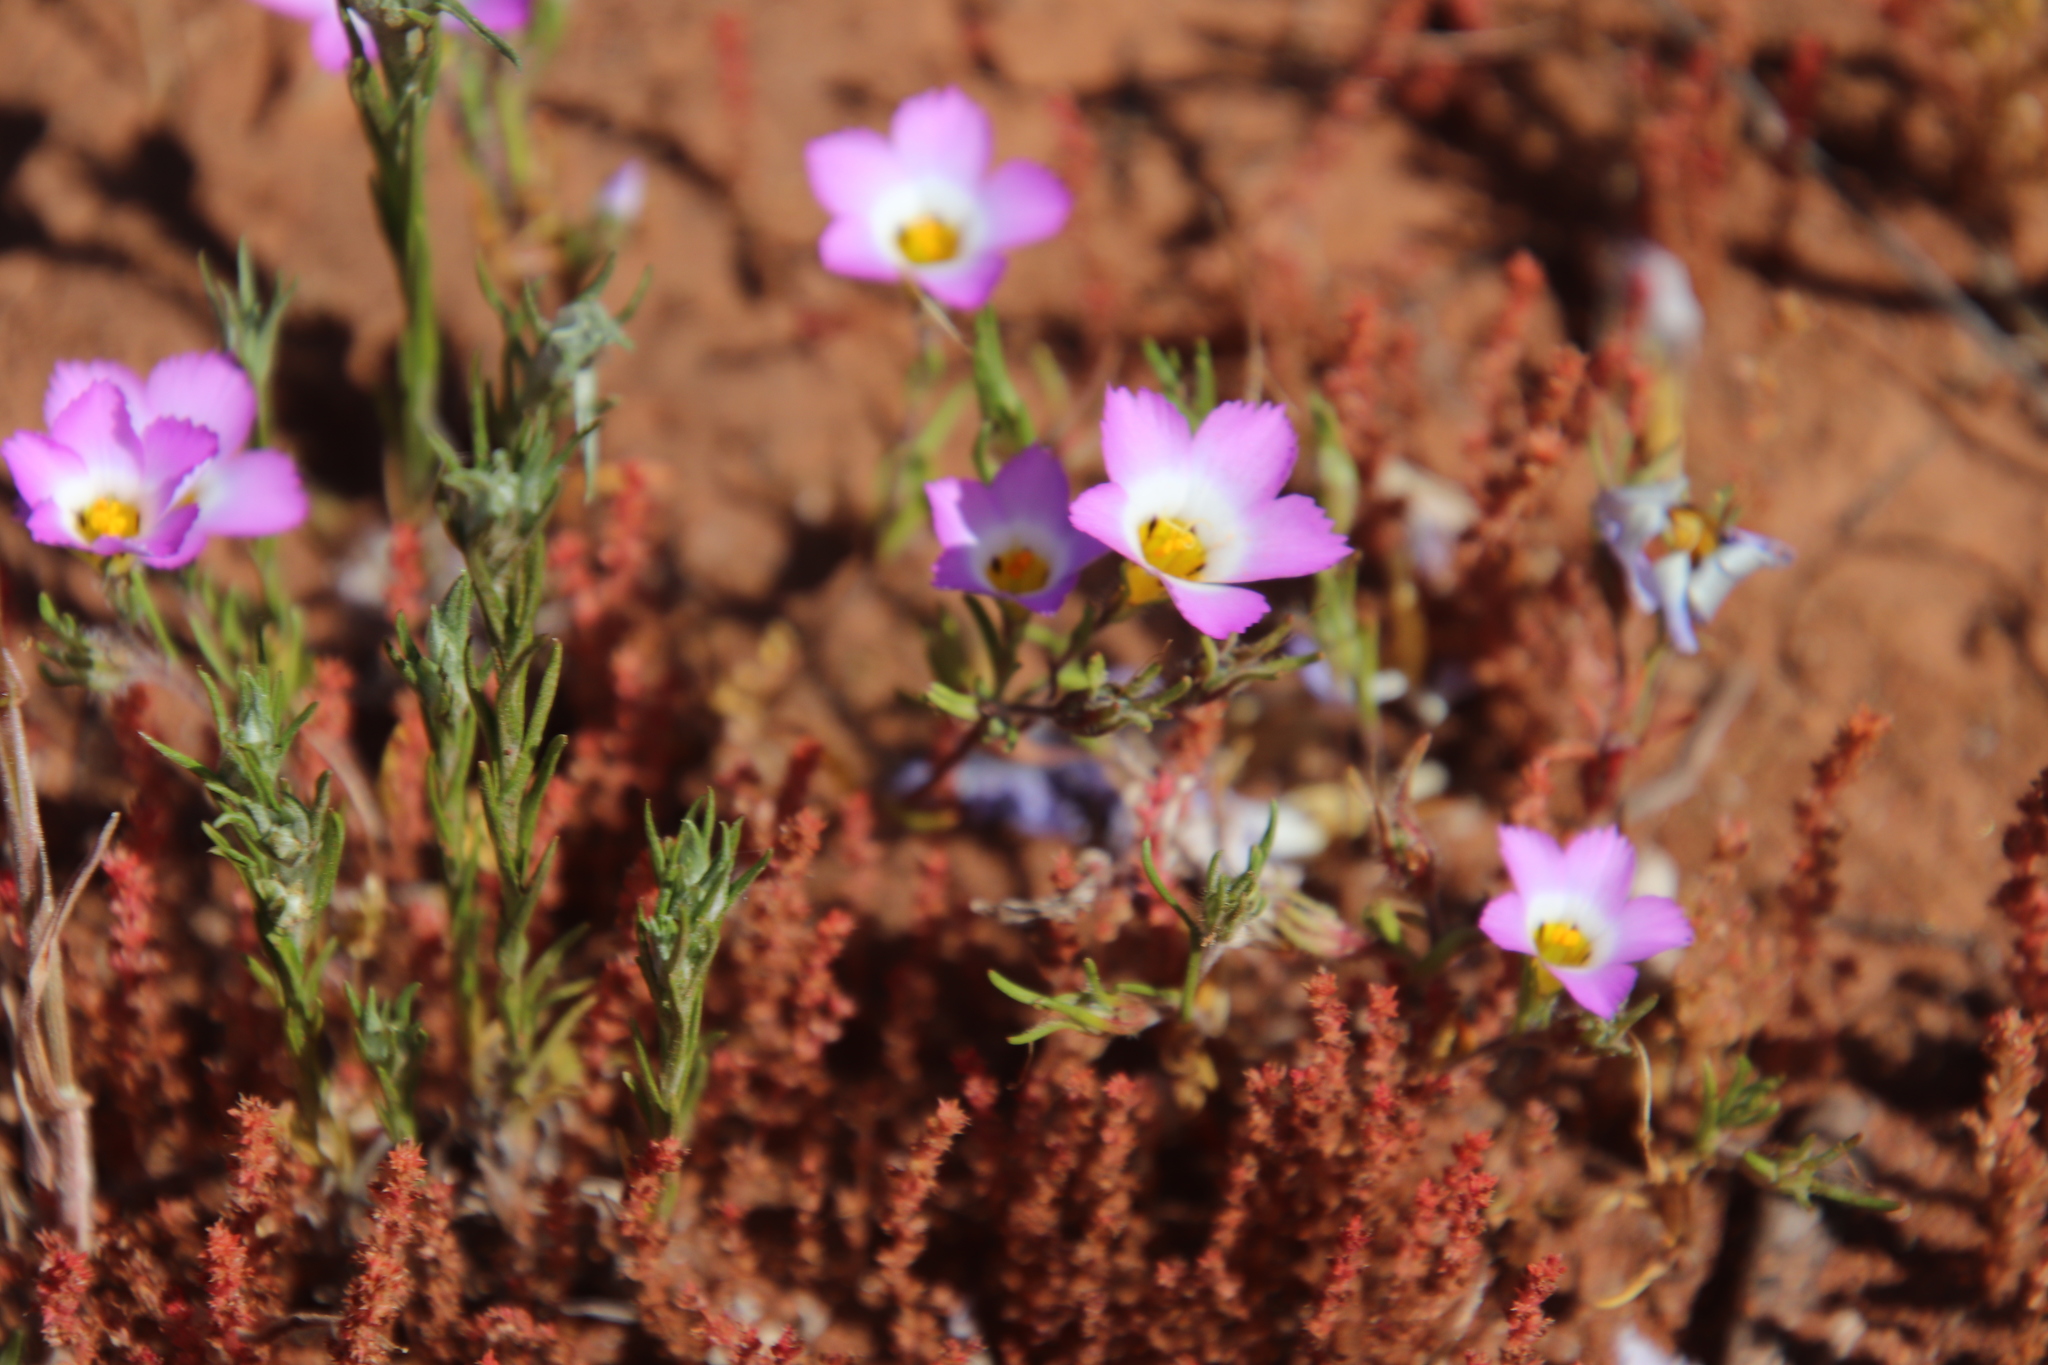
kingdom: Plantae
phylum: Tracheophyta
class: Magnoliopsida
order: Ericales
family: Polemoniaceae
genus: Linanthus
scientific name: Linanthus dianthiflorus
